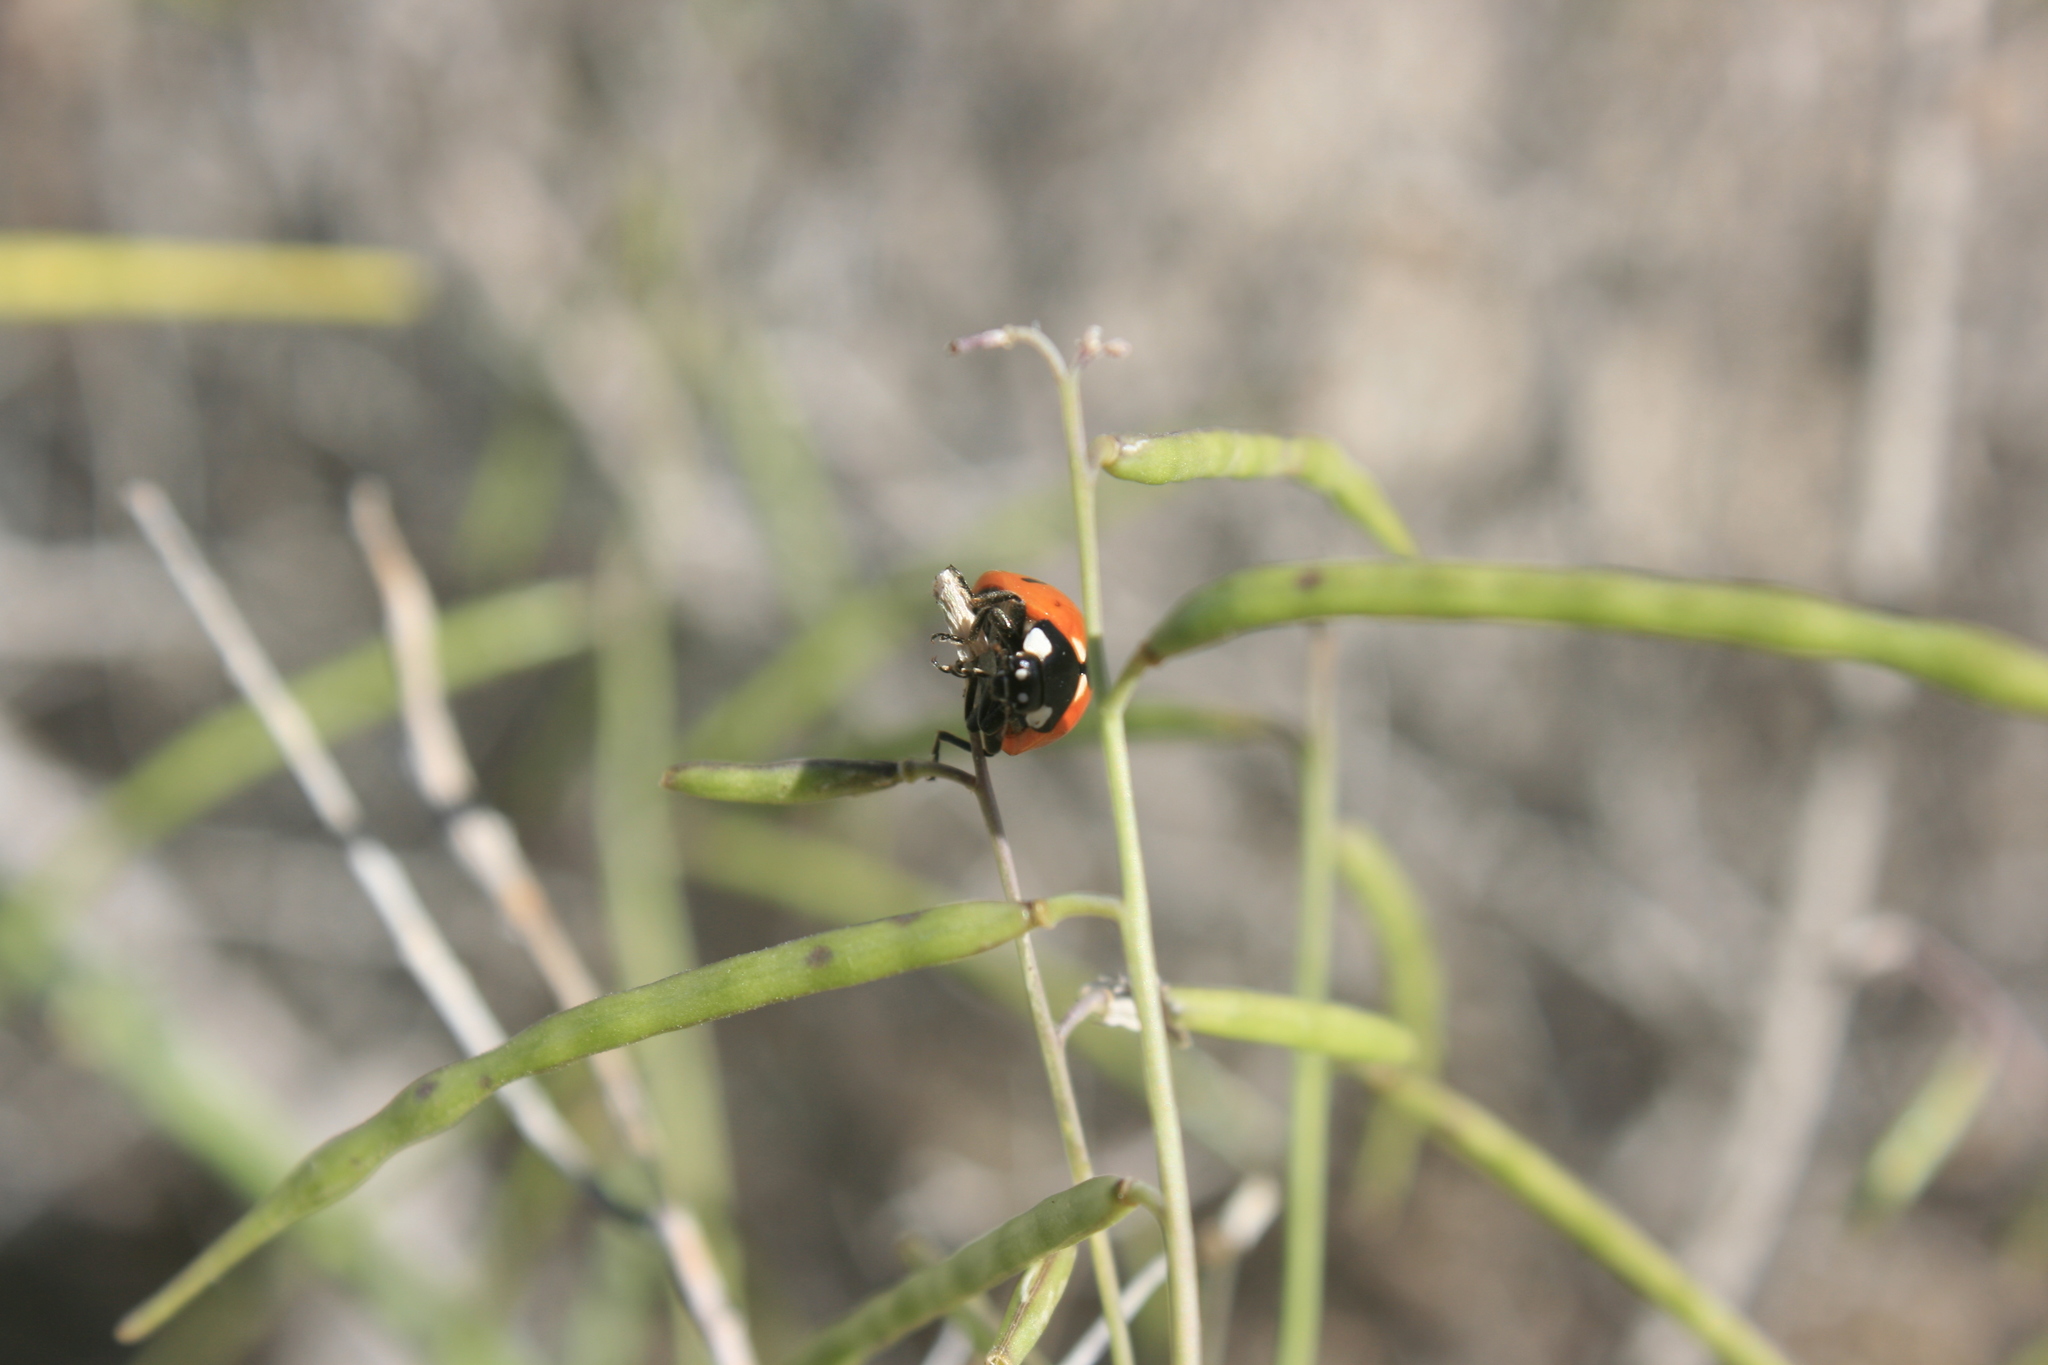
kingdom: Animalia
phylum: Arthropoda
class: Insecta
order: Coleoptera
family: Coccinellidae
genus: Coccinella
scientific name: Coccinella septempunctata
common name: Sevenspotted lady beetle
